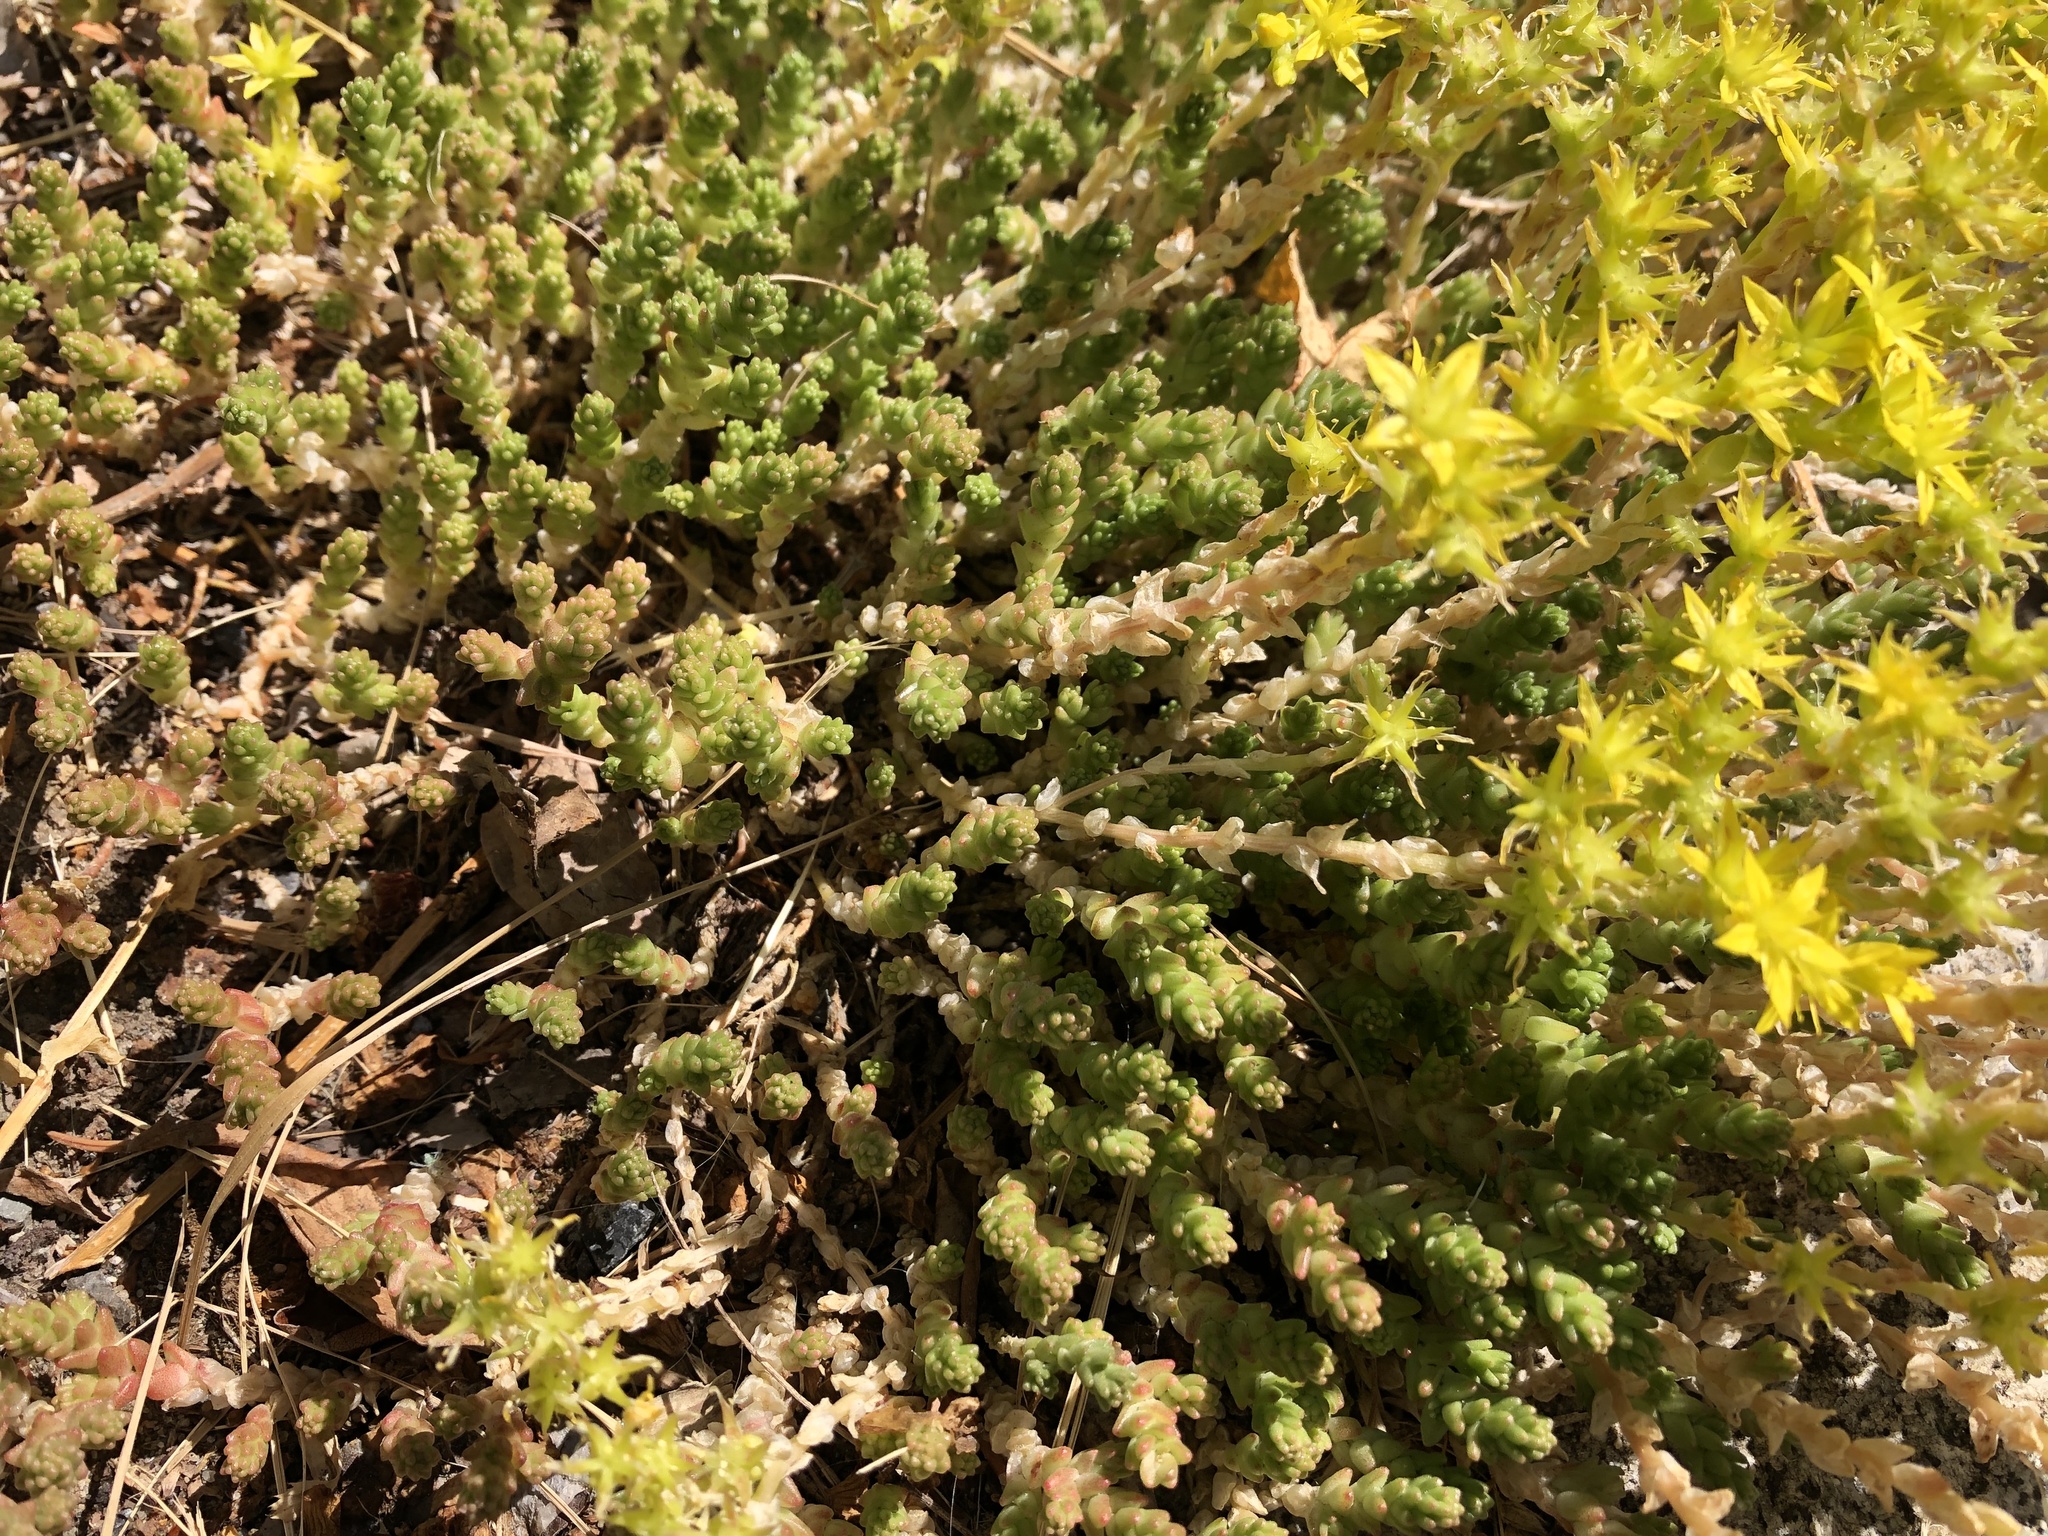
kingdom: Plantae
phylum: Tracheophyta
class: Magnoliopsida
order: Saxifragales
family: Crassulaceae
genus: Sedum
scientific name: Sedum acre
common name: Biting stonecrop
